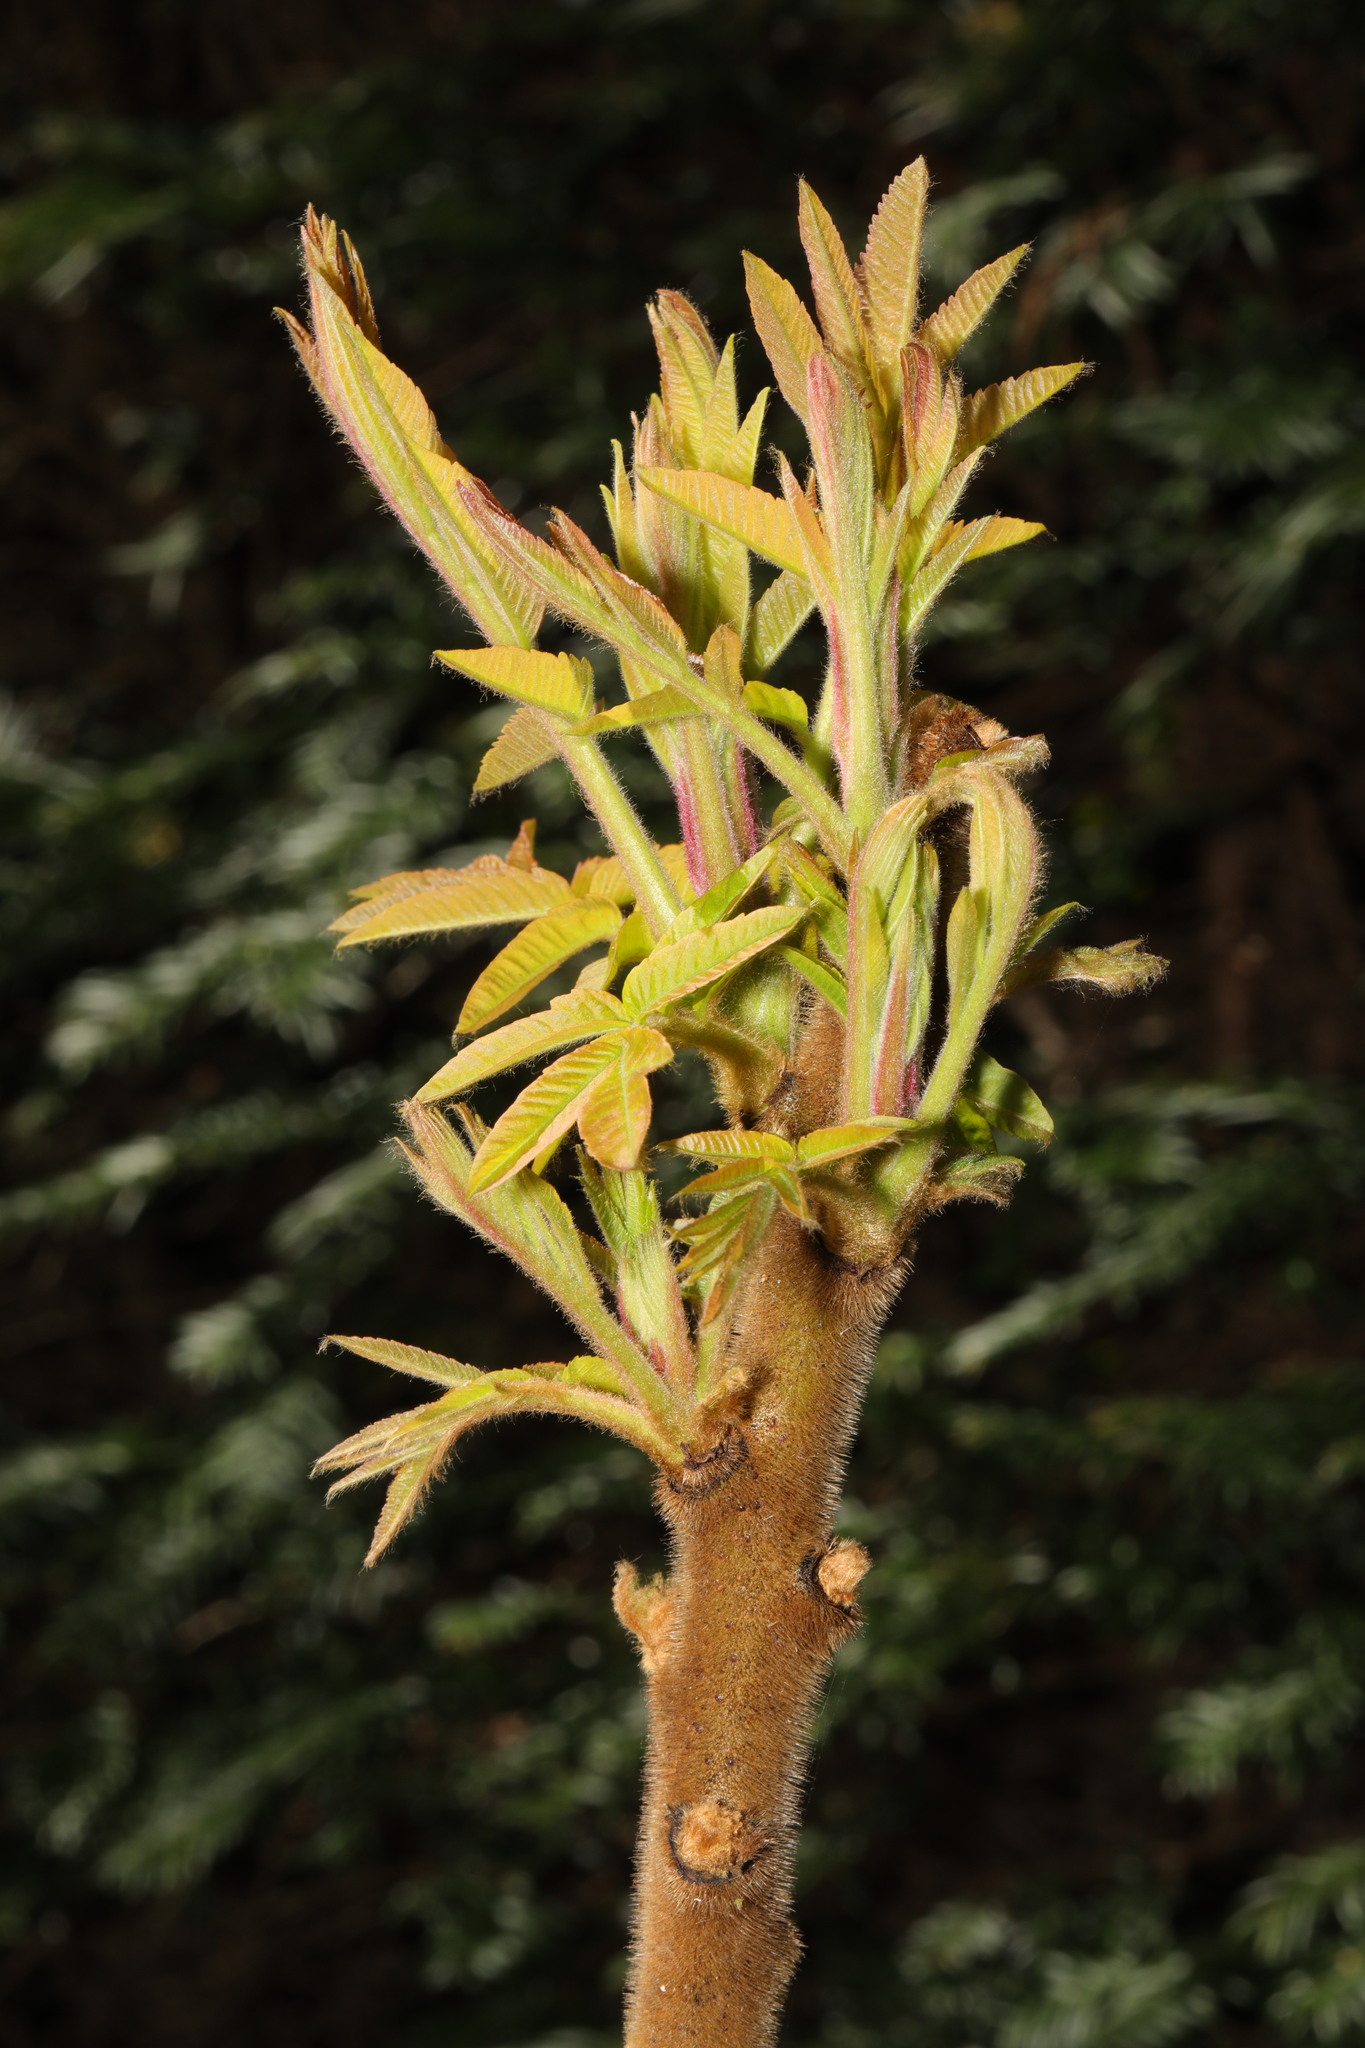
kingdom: Plantae
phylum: Tracheophyta
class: Magnoliopsida
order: Sapindales
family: Anacardiaceae
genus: Rhus
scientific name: Rhus typhina
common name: Staghorn sumac
